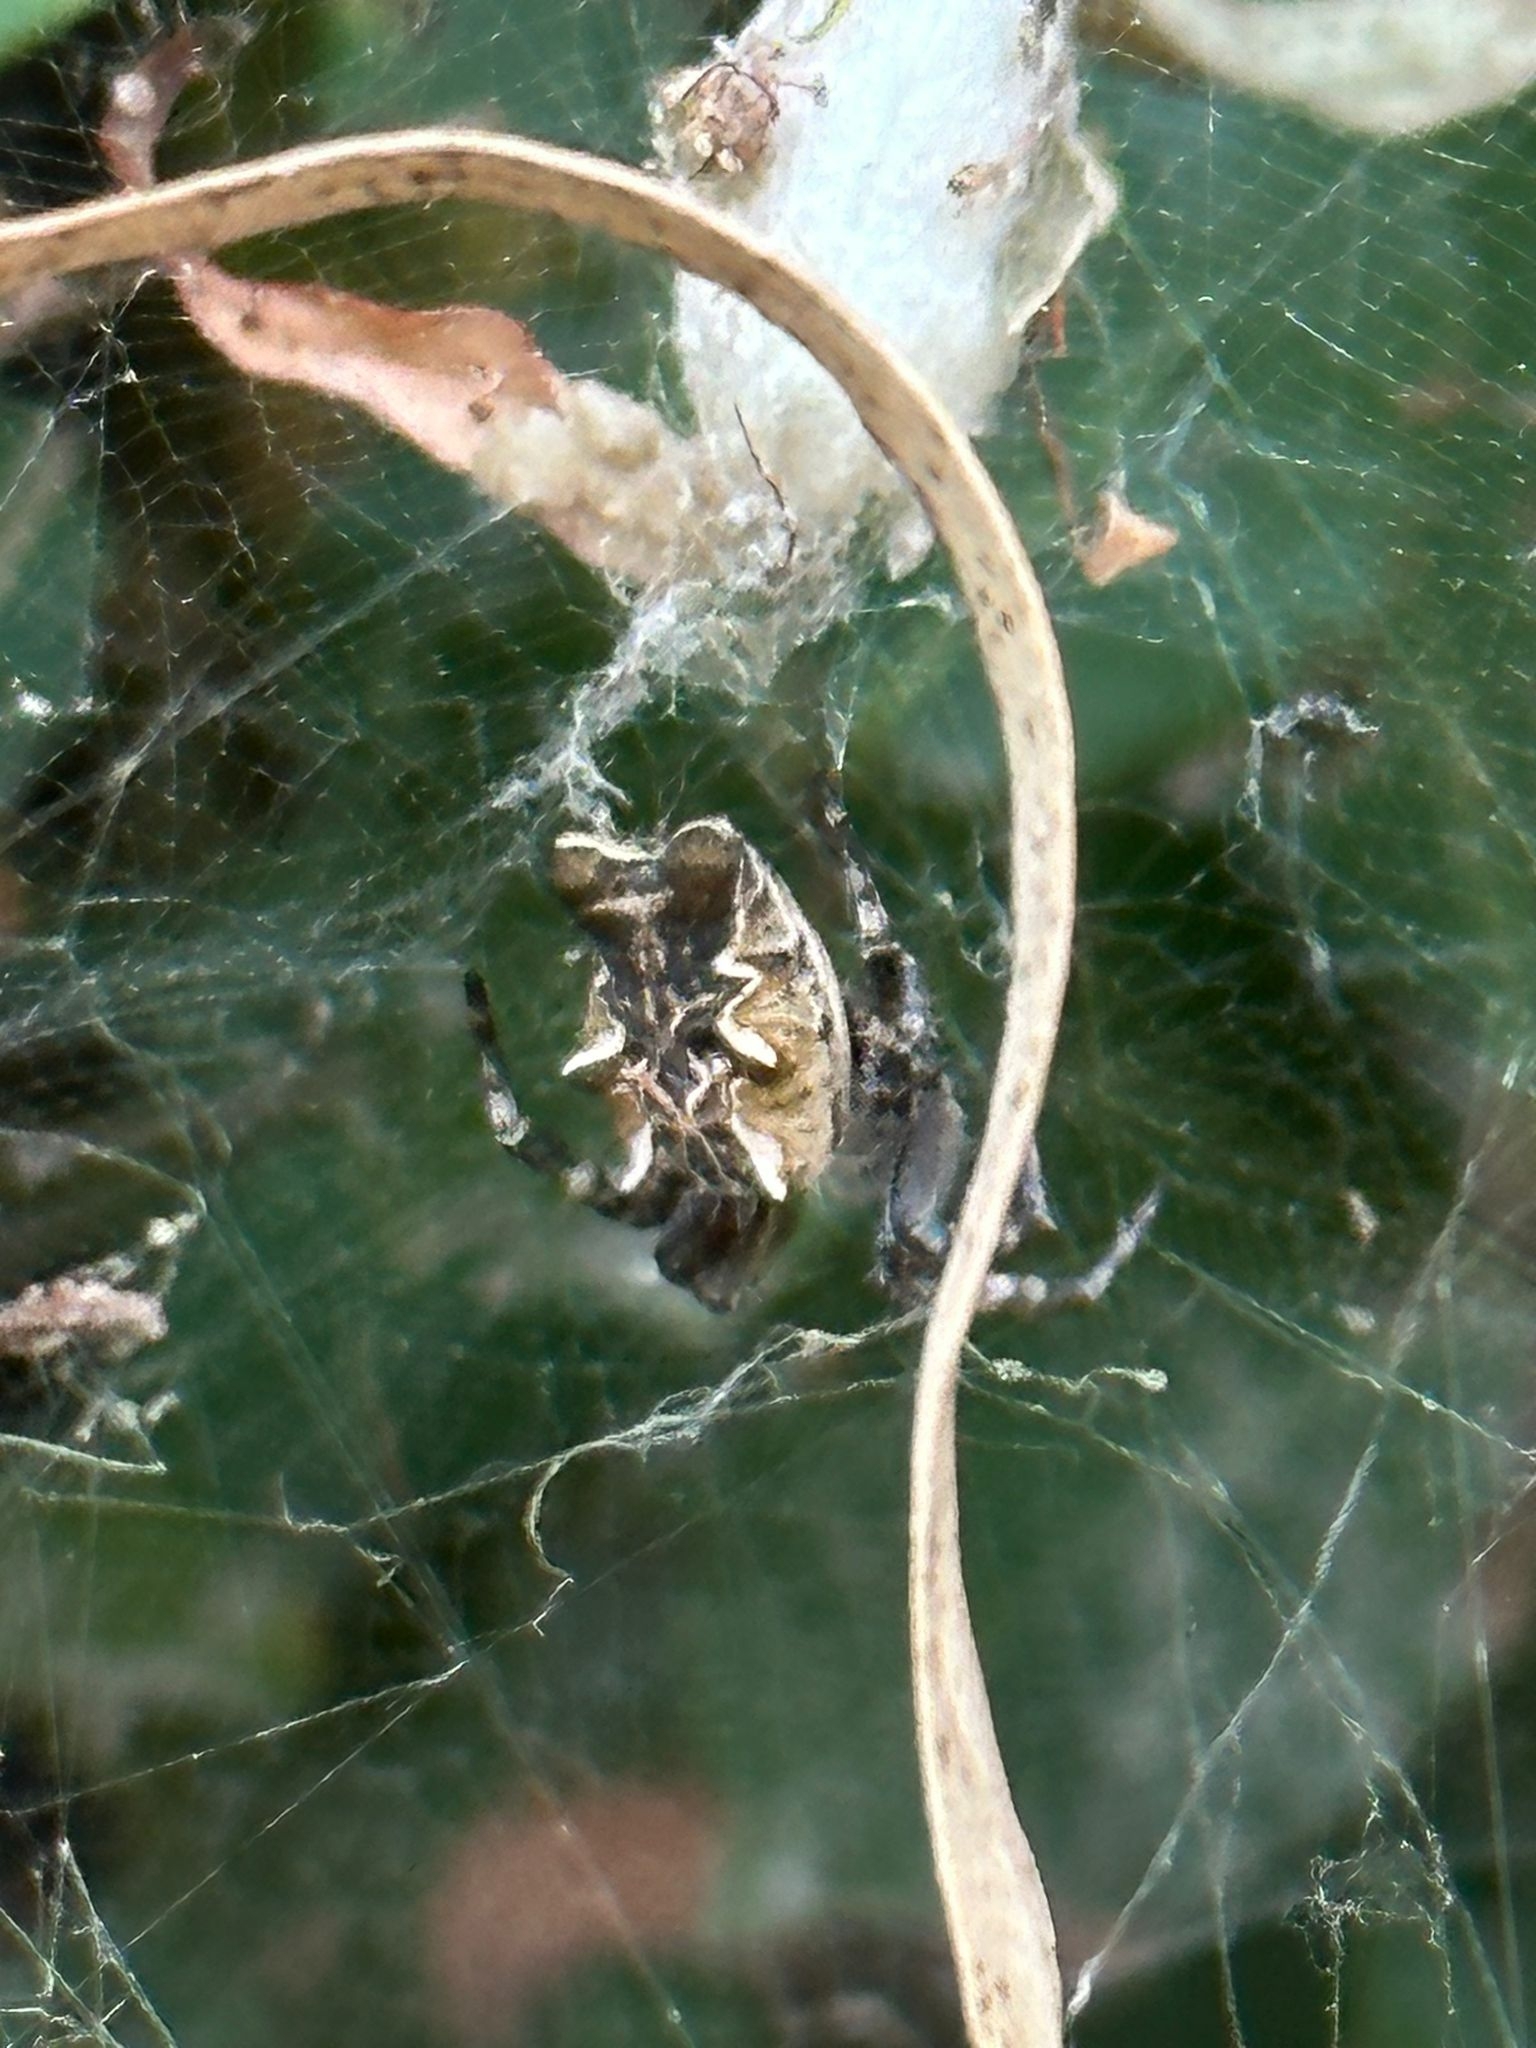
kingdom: Animalia
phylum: Arthropoda
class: Arachnida
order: Araneae
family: Araneidae
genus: Cyrtophora
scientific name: Cyrtophora citricola
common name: Orb weavers
